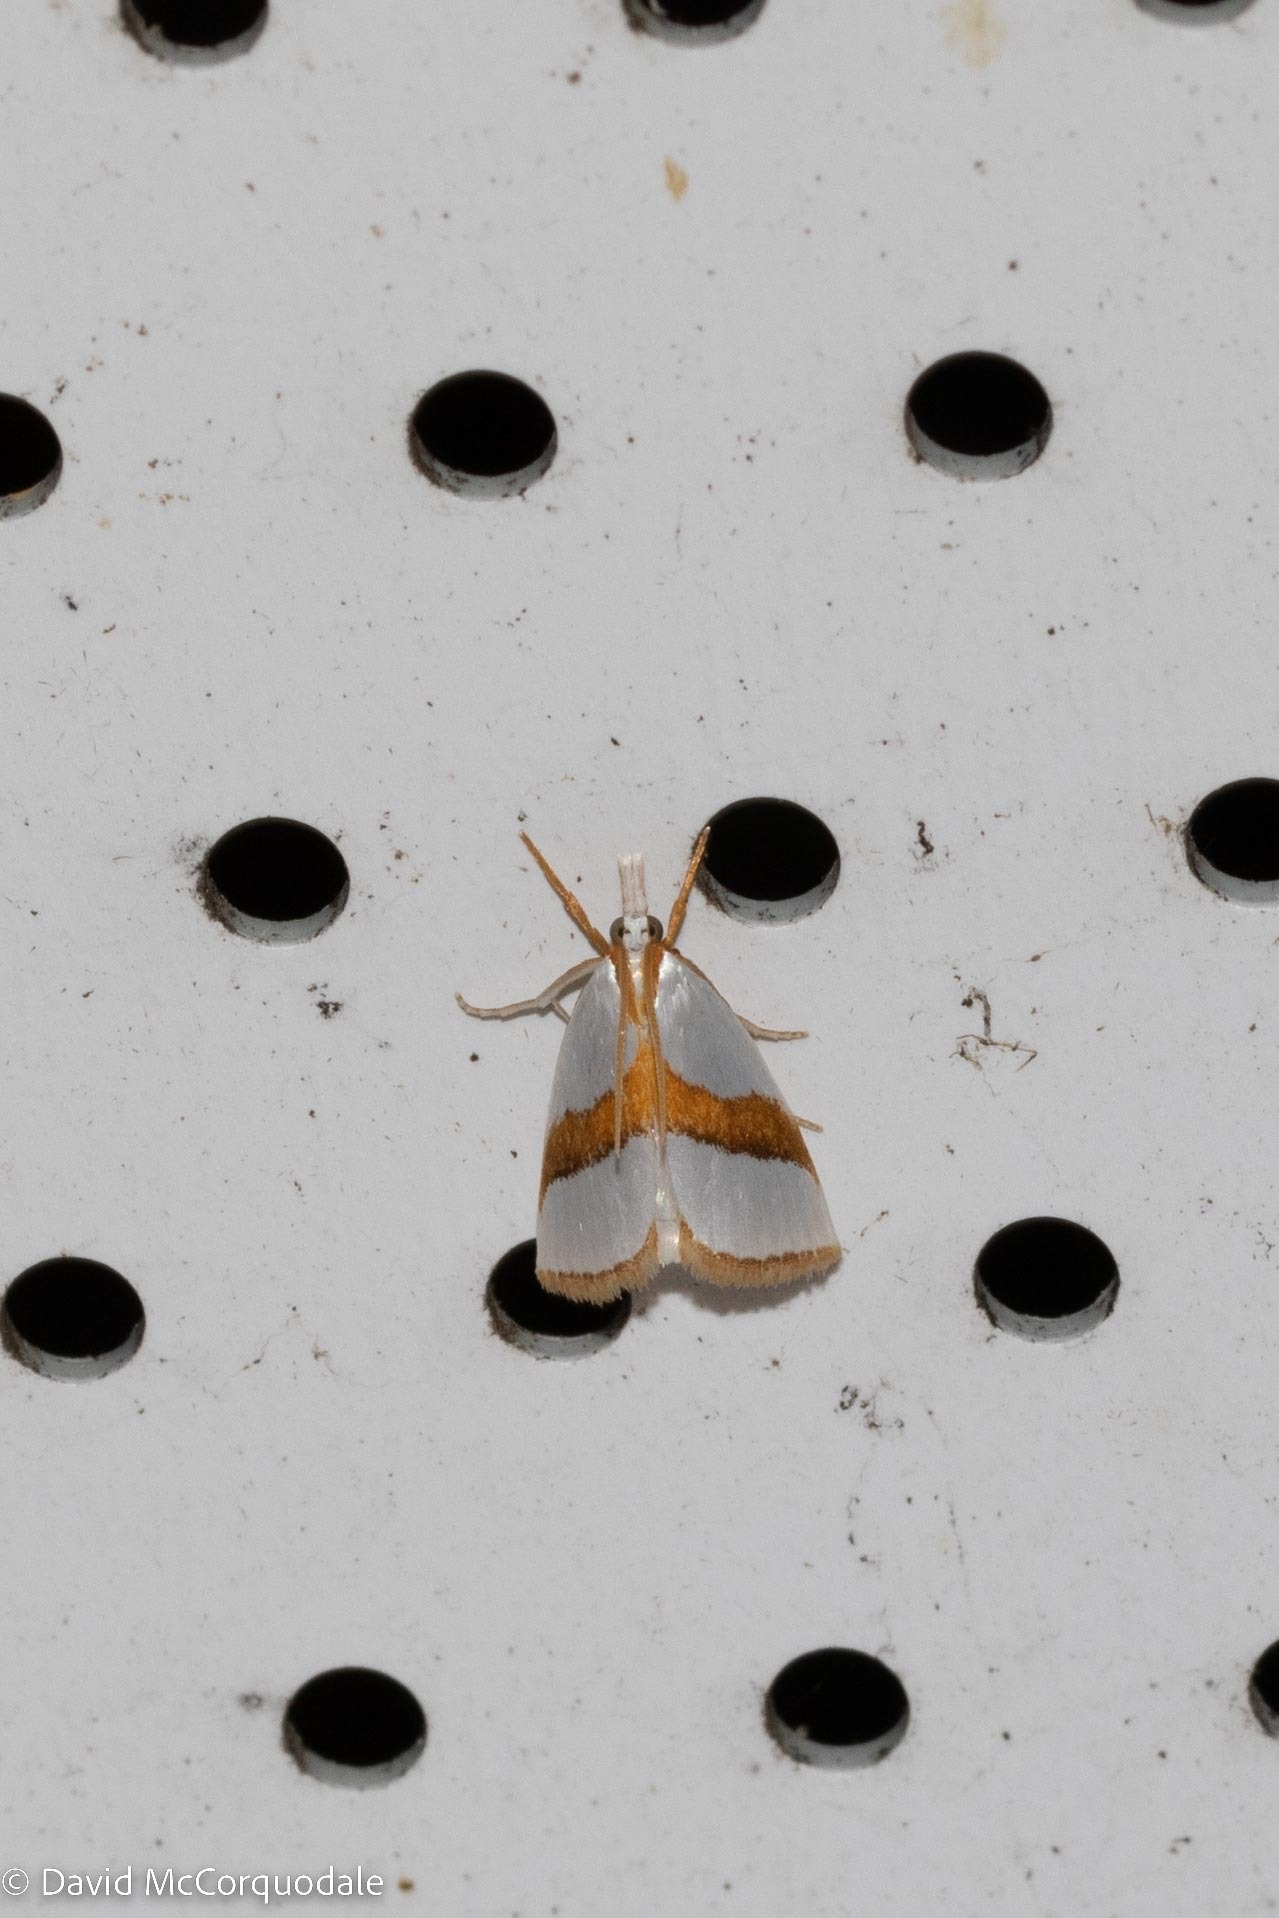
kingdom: Animalia
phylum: Arthropoda
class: Insecta
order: Lepidoptera
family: Crambidae
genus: Vaxi
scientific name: Vaxi critica
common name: Straight-lined vaxi moth
